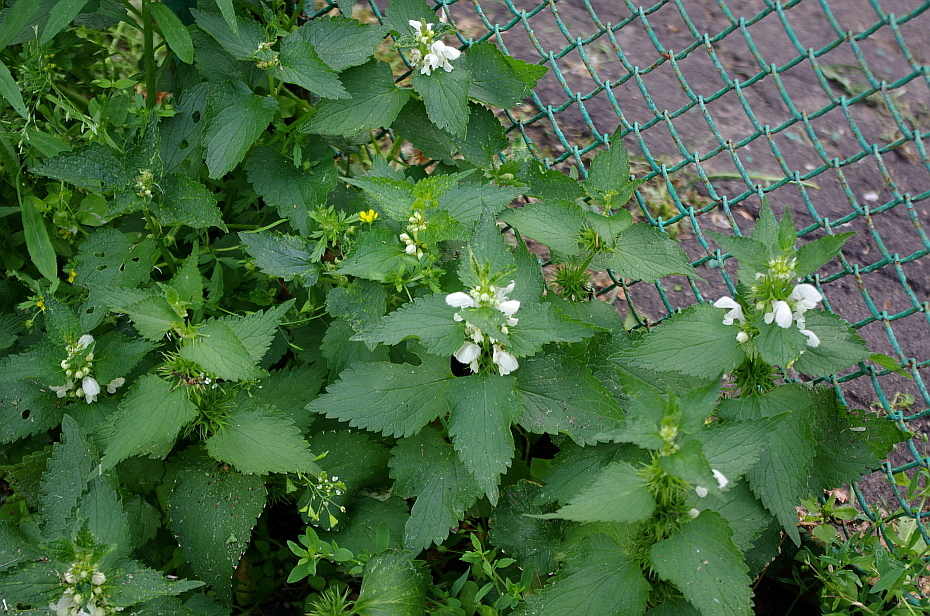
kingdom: Plantae
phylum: Tracheophyta
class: Magnoliopsida
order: Lamiales
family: Lamiaceae
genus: Lamium
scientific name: Lamium album
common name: White dead-nettle
